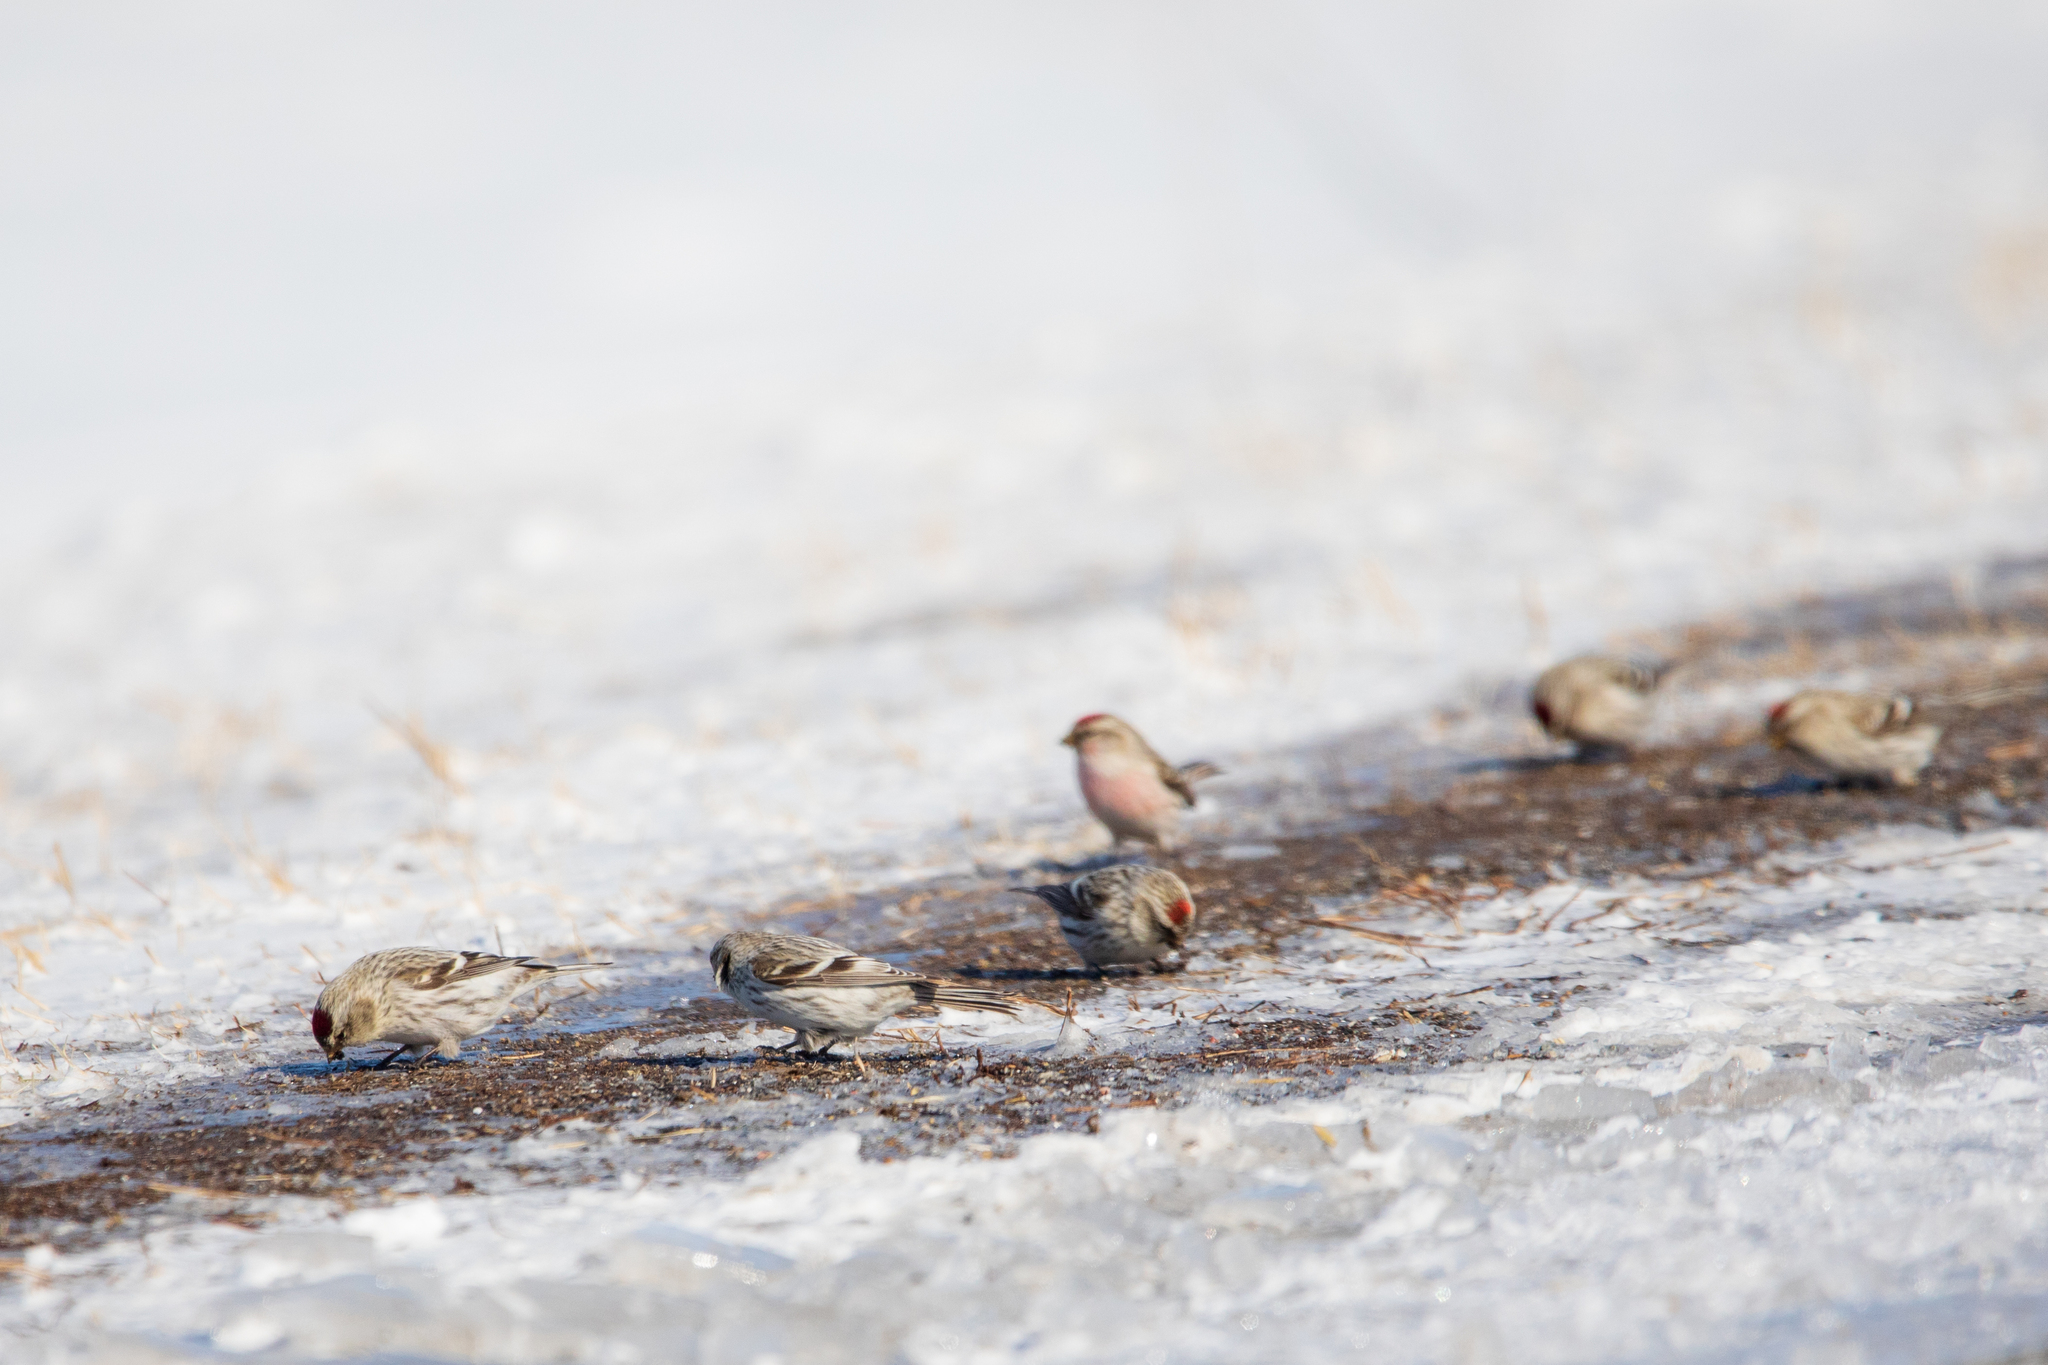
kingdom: Animalia
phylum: Chordata
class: Aves
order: Passeriformes
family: Fringillidae
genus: Acanthis
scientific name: Acanthis hornemanni
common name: Arctic redpoll
